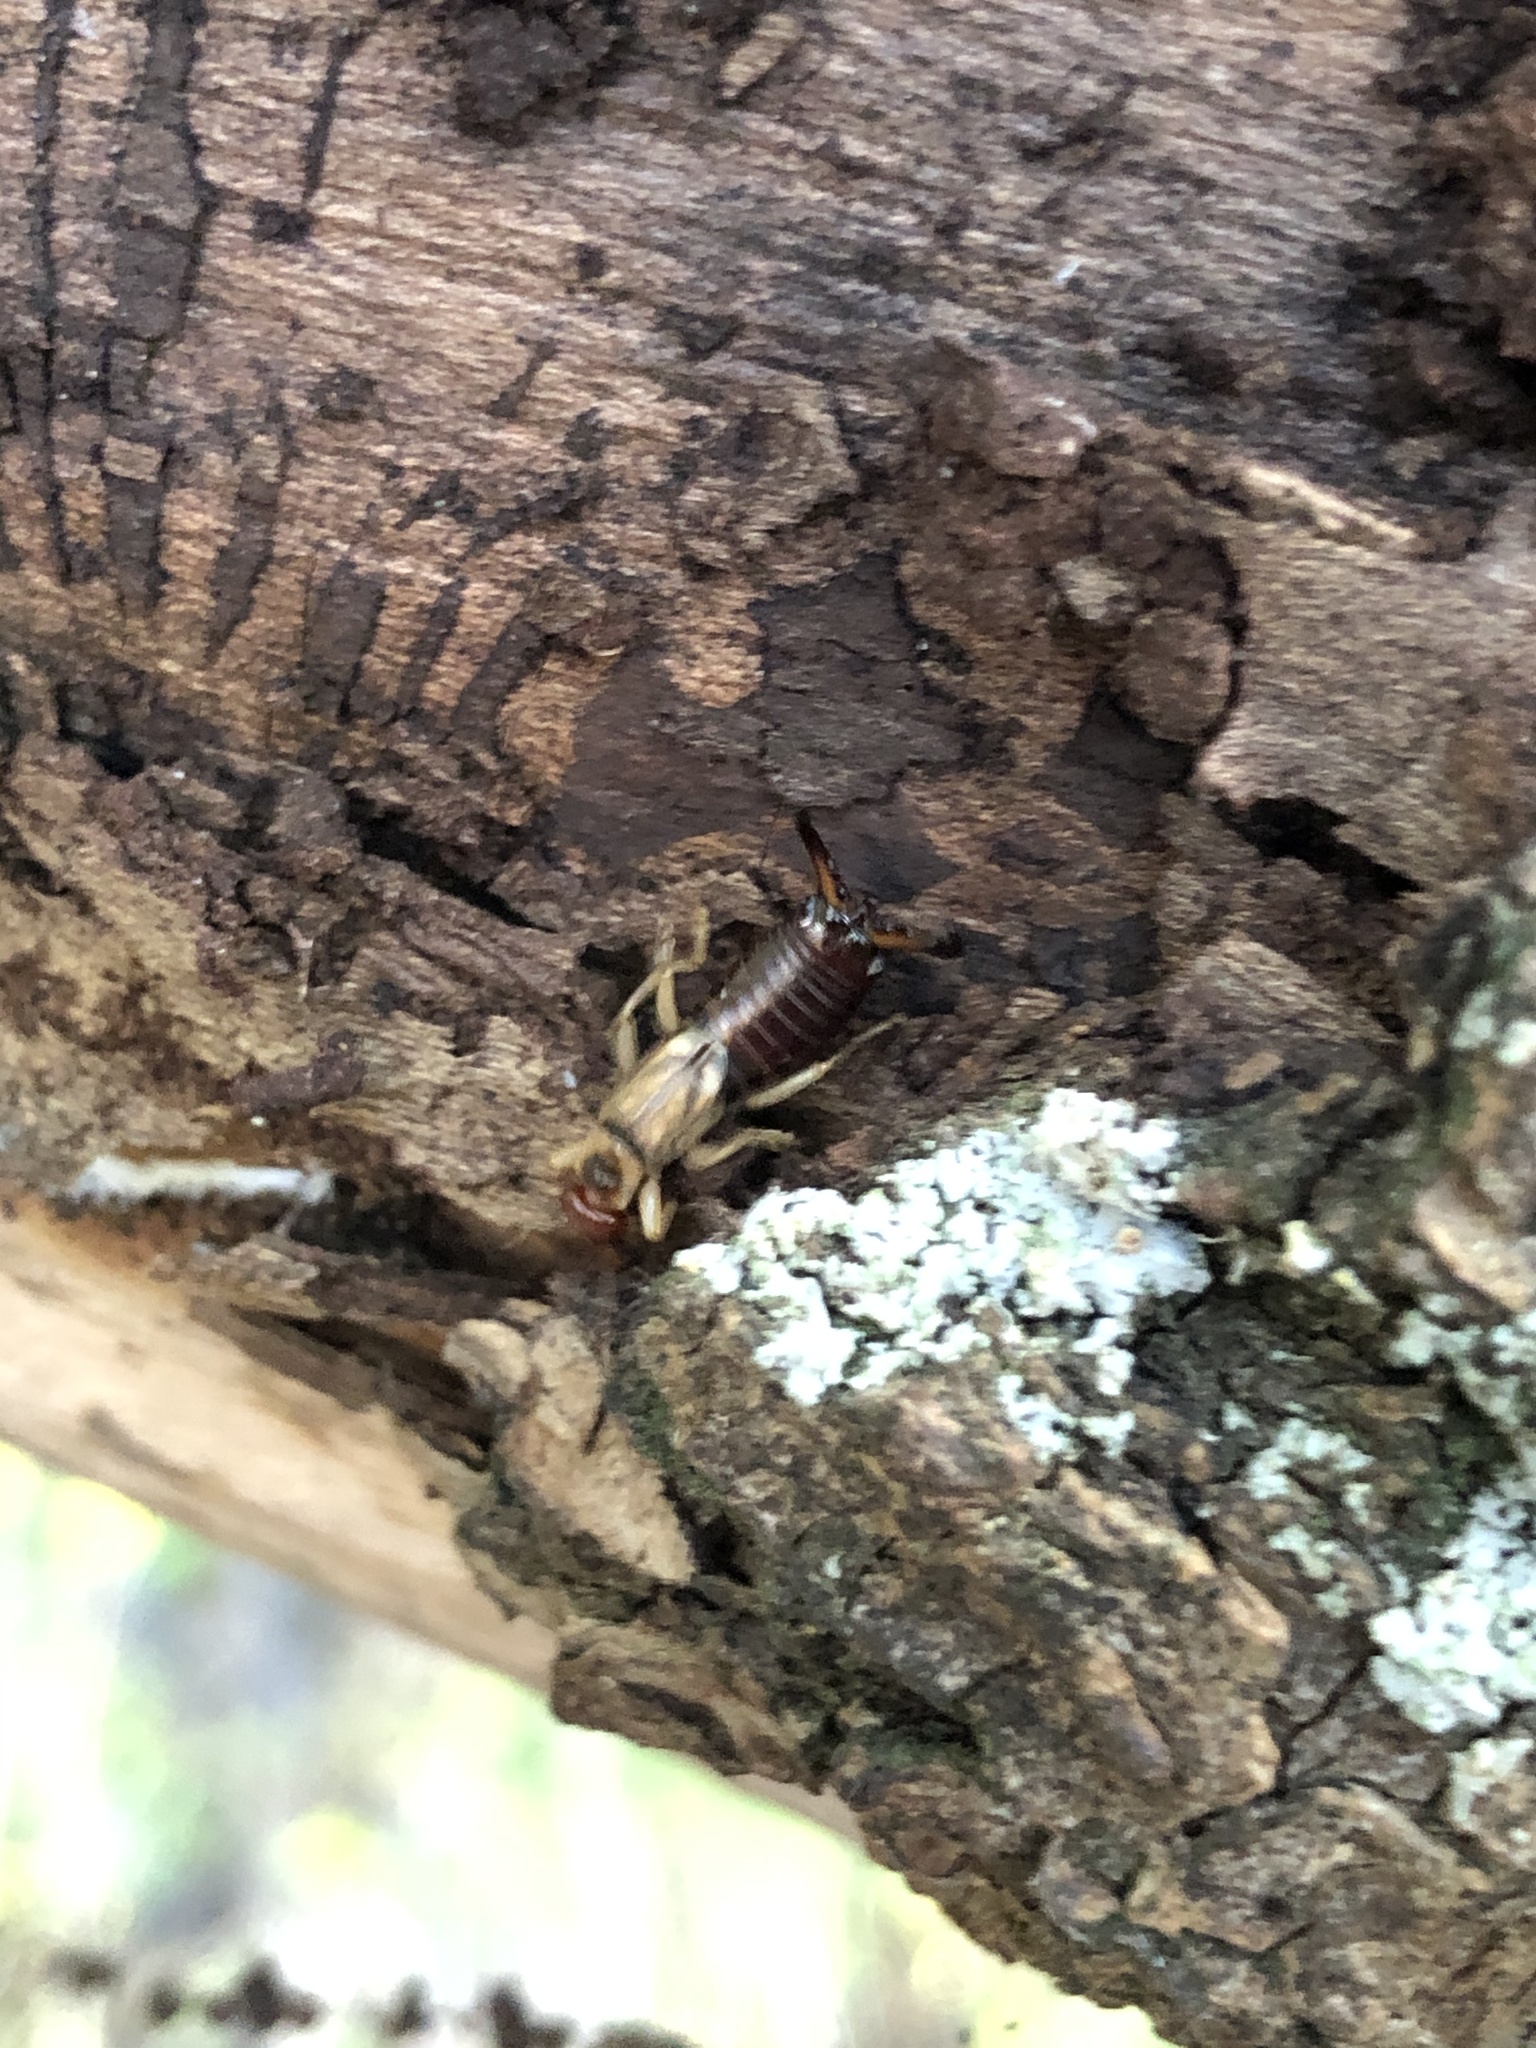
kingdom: Animalia
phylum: Arthropoda
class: Insecta
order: Dermaptera
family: Forficulidae
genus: Forficula
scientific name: Forficula
